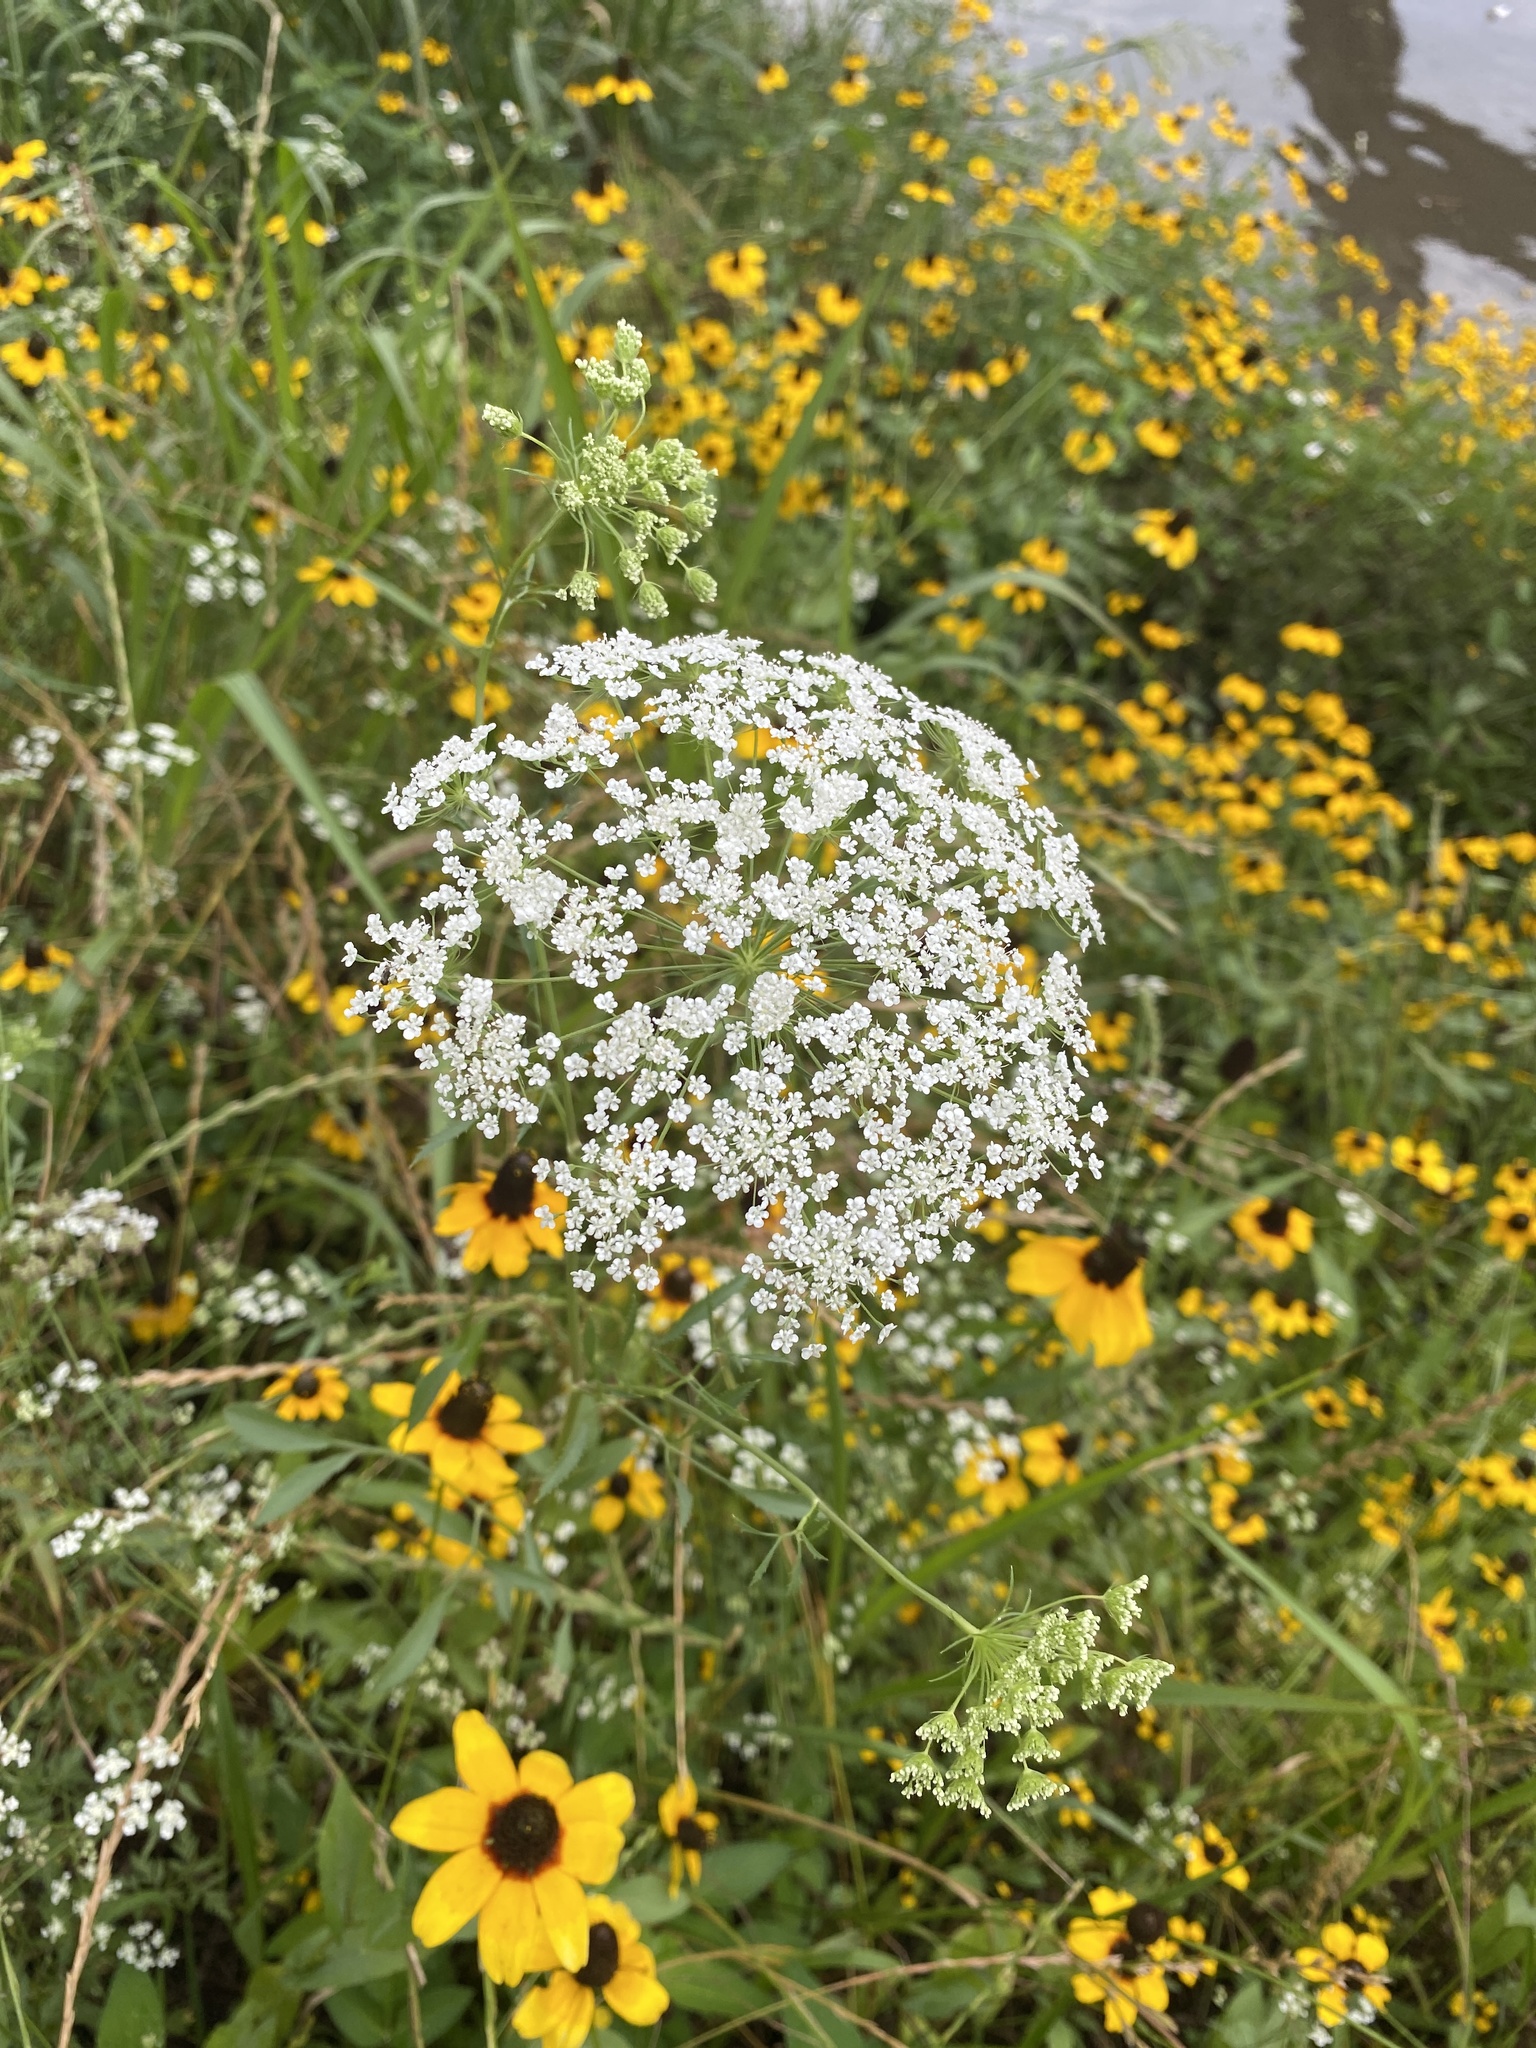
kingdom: Plantae
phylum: Tracheophyta
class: Magnoliopsida
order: Apiales
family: Apiaceae
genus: Ammi
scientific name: Ammi majus
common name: Bullwort
